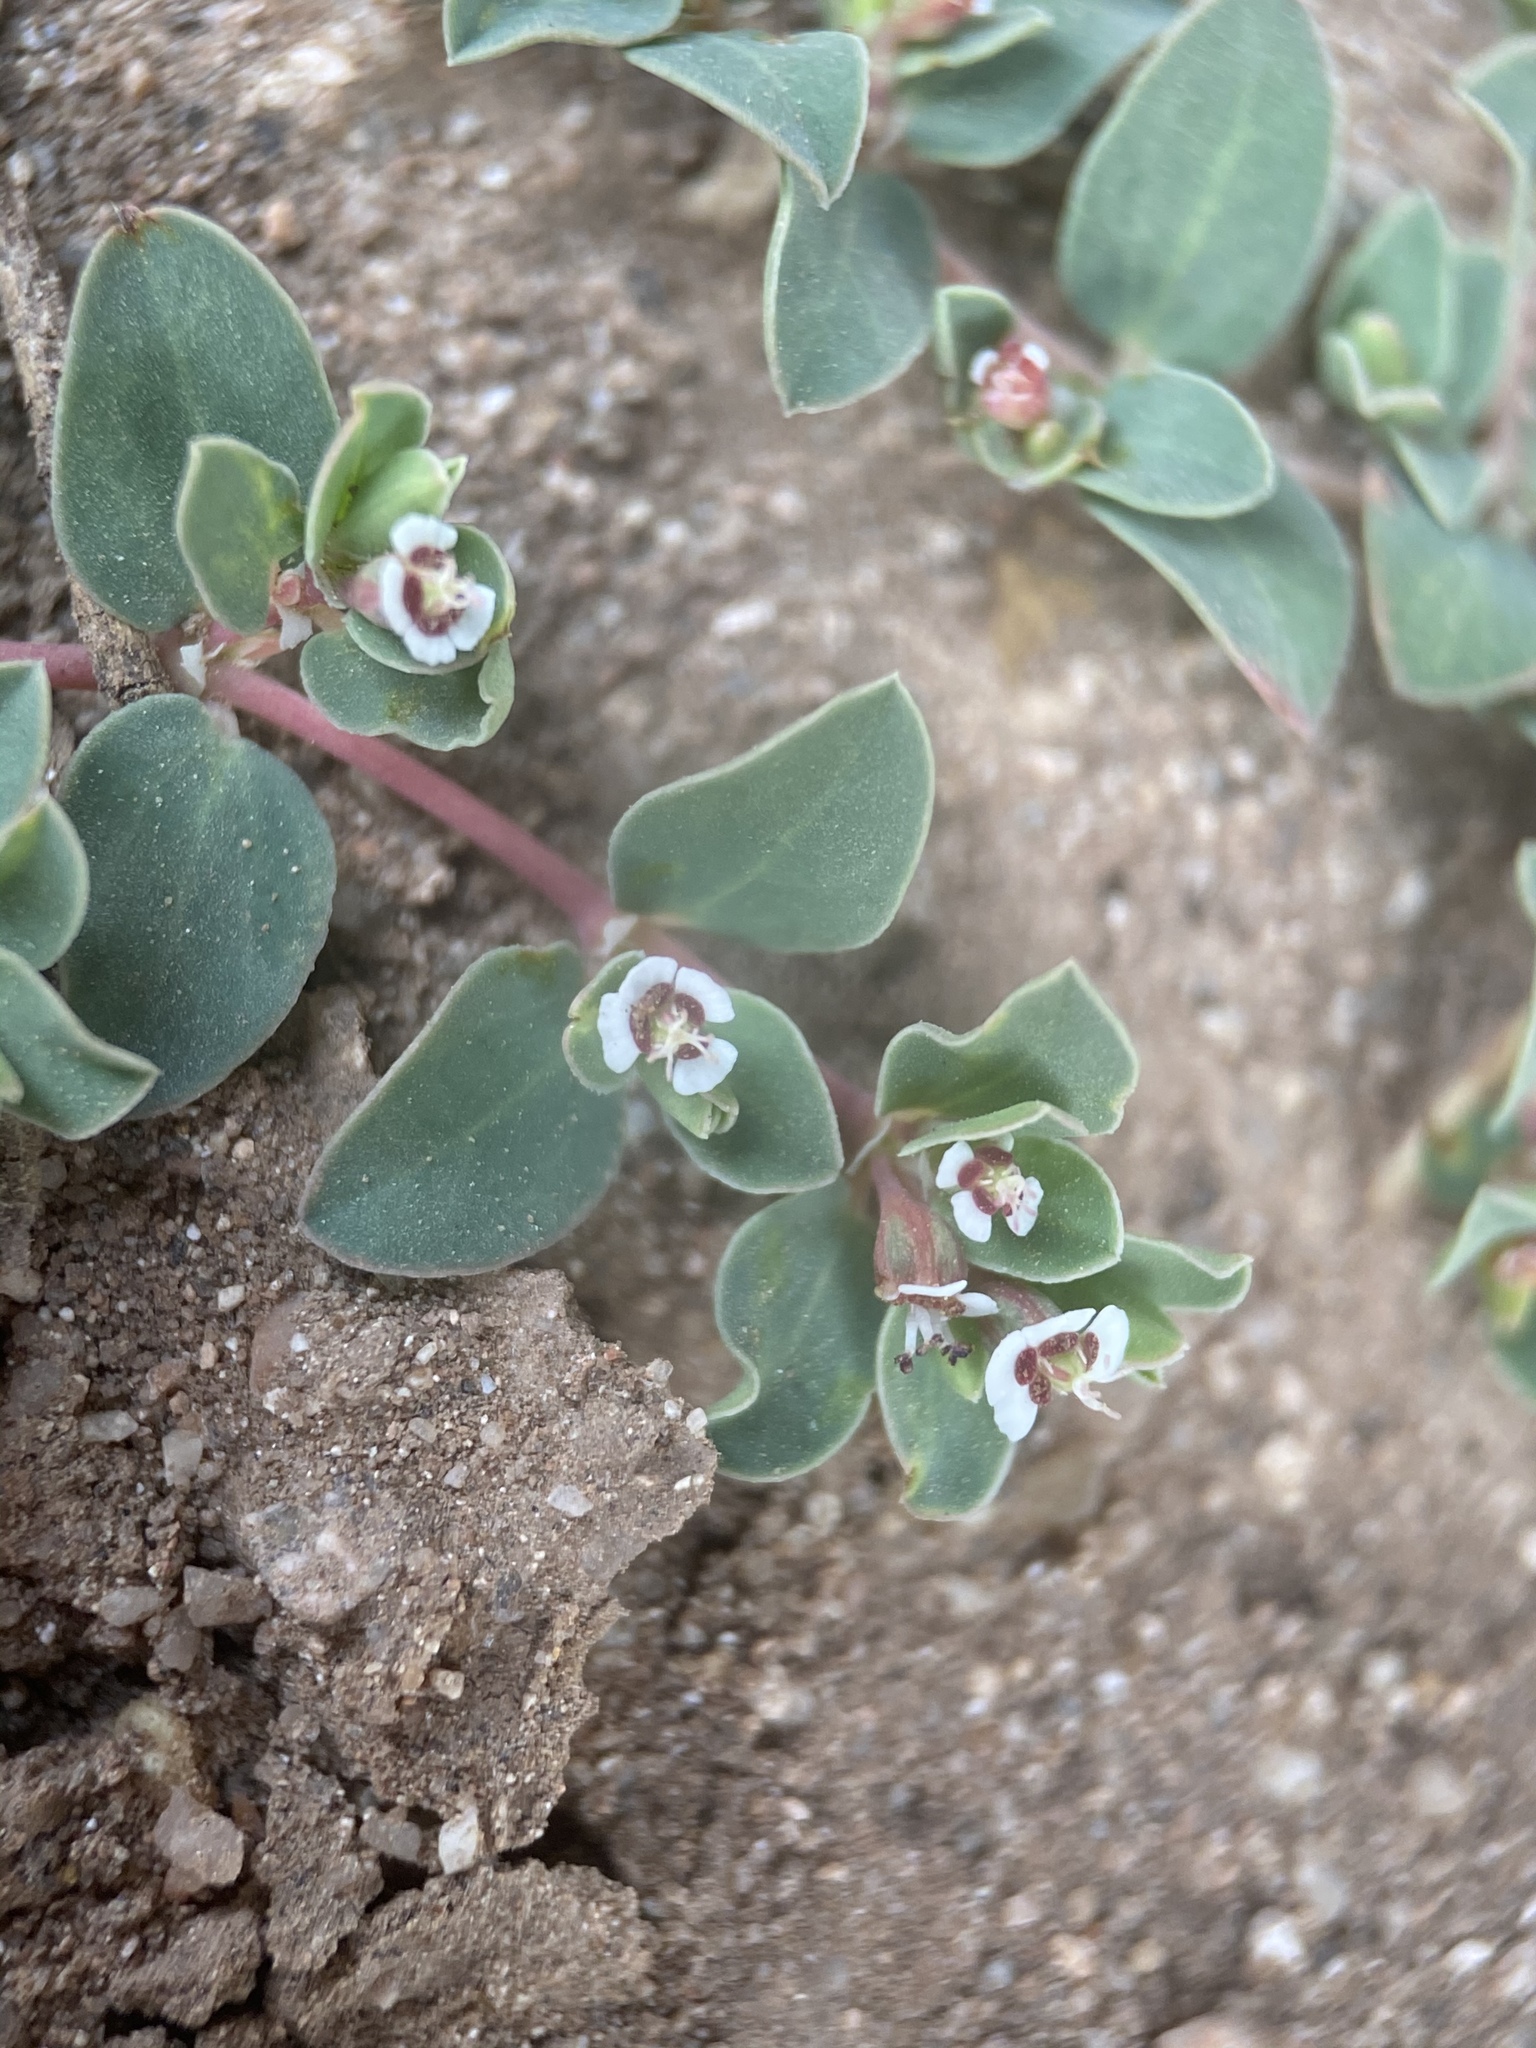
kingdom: Plantae
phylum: Tracheophyta
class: Magnoliopsida
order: Malpighiales
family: Euphorbiaceae
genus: Euphorbia
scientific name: Euphorbia albomarginata
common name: Whitemargin sandmat
